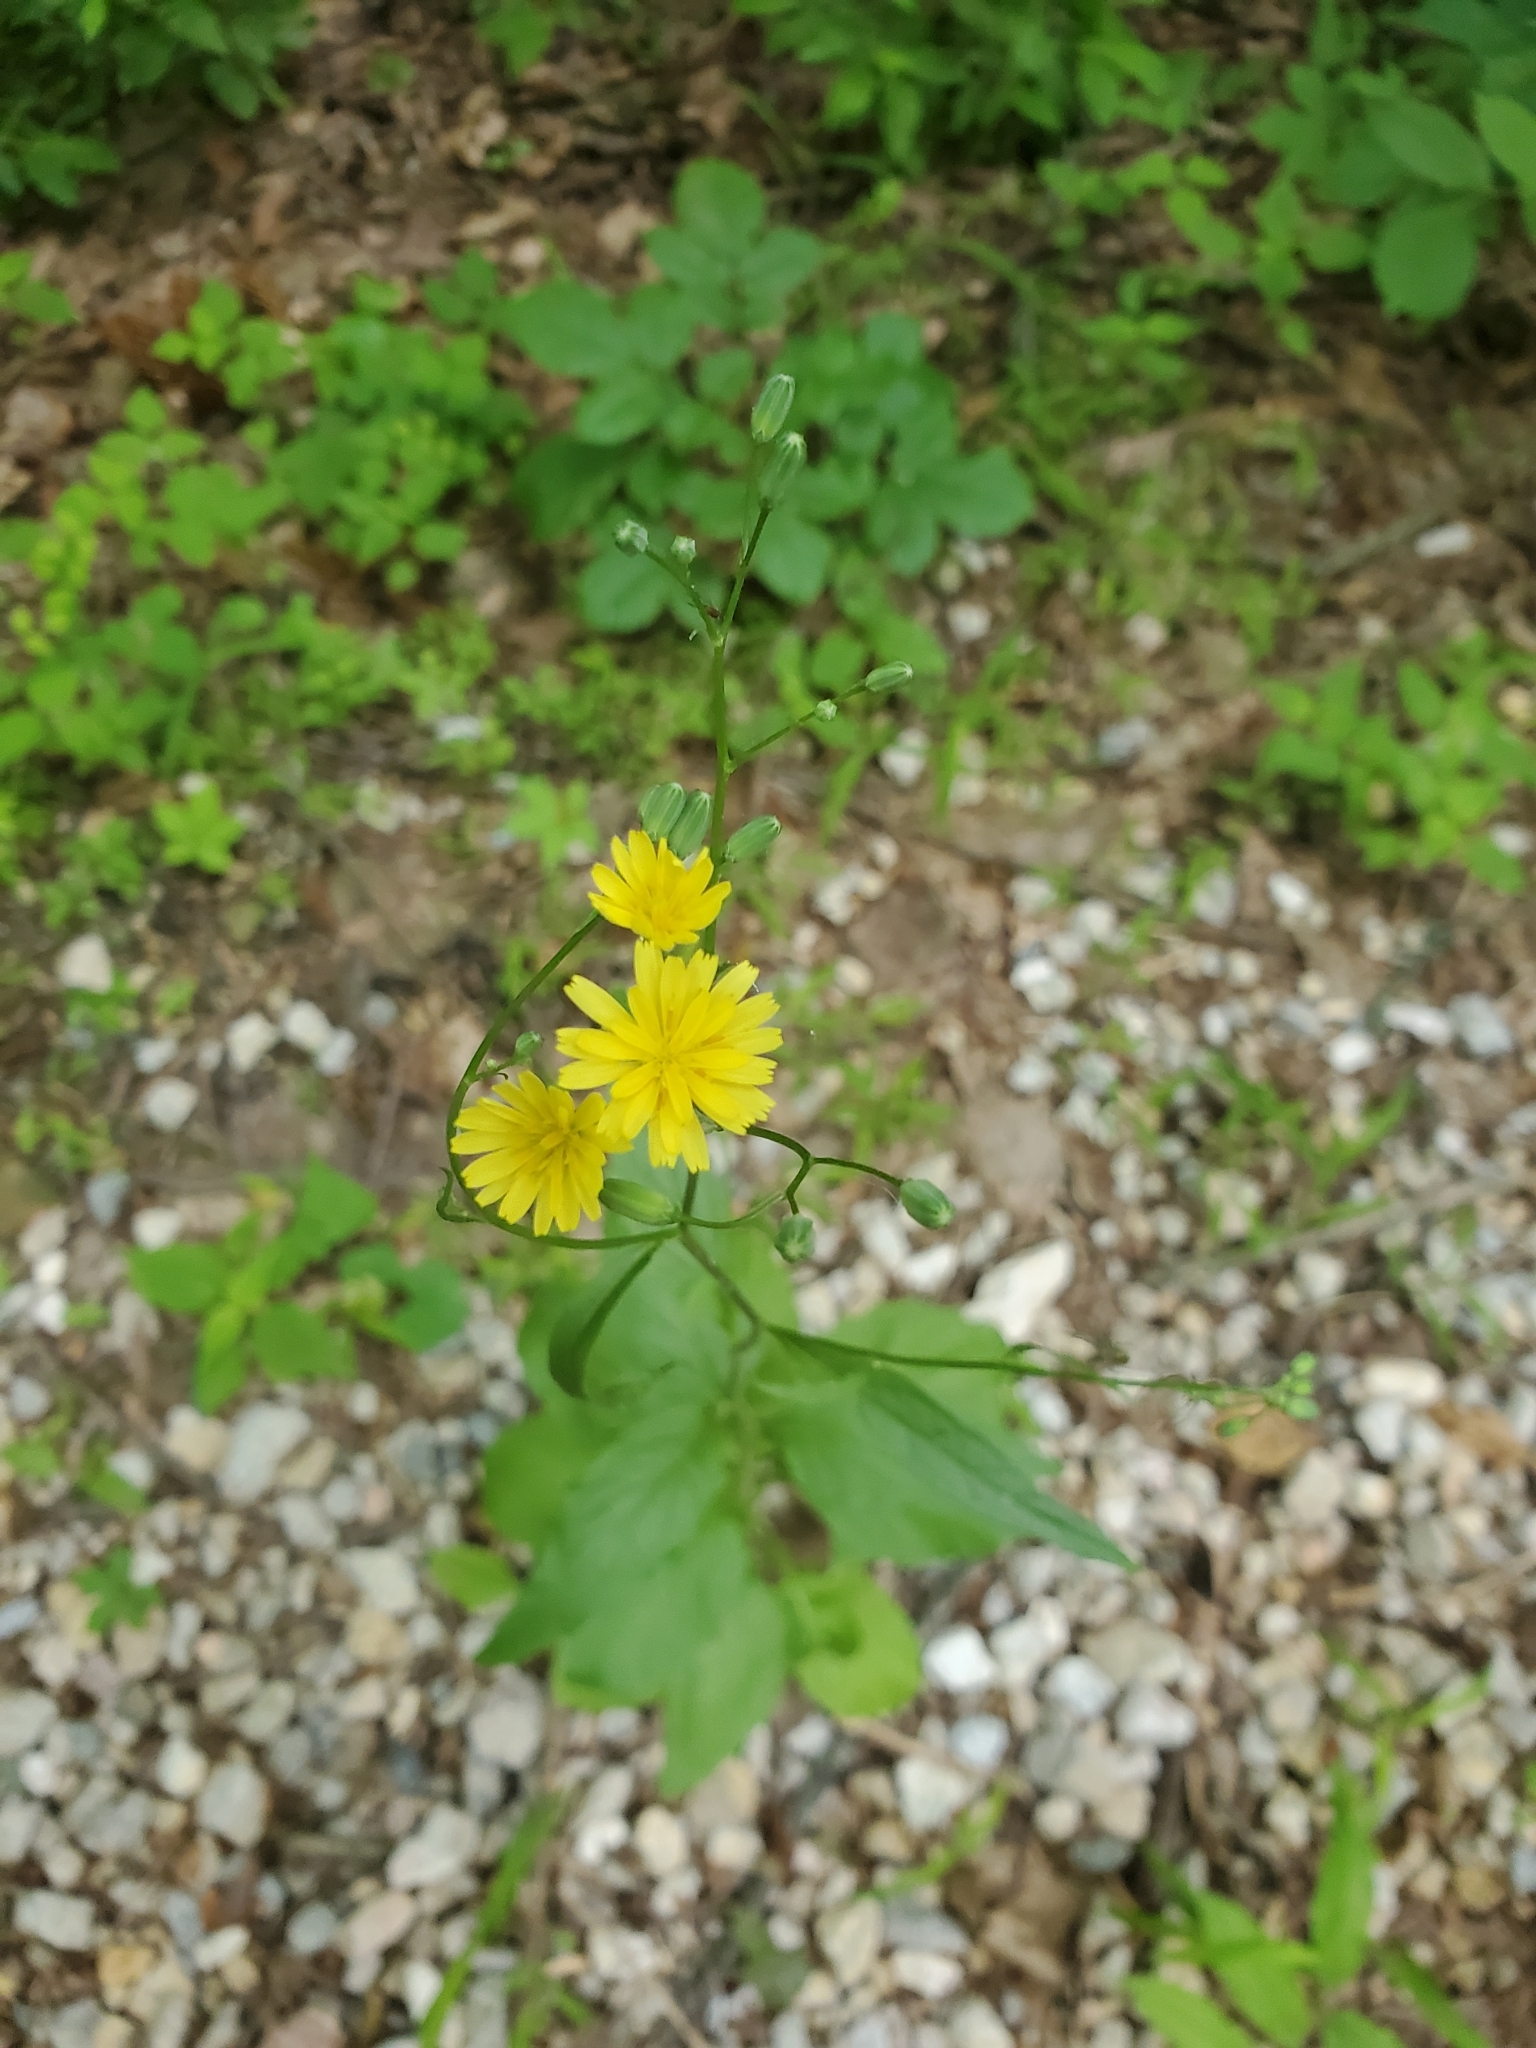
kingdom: Plantae
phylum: Tracheophyta
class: Magnoliopsida
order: Asterales
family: Asteraceae
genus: Lapsana
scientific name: Lapsana communis
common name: Nipplewort
